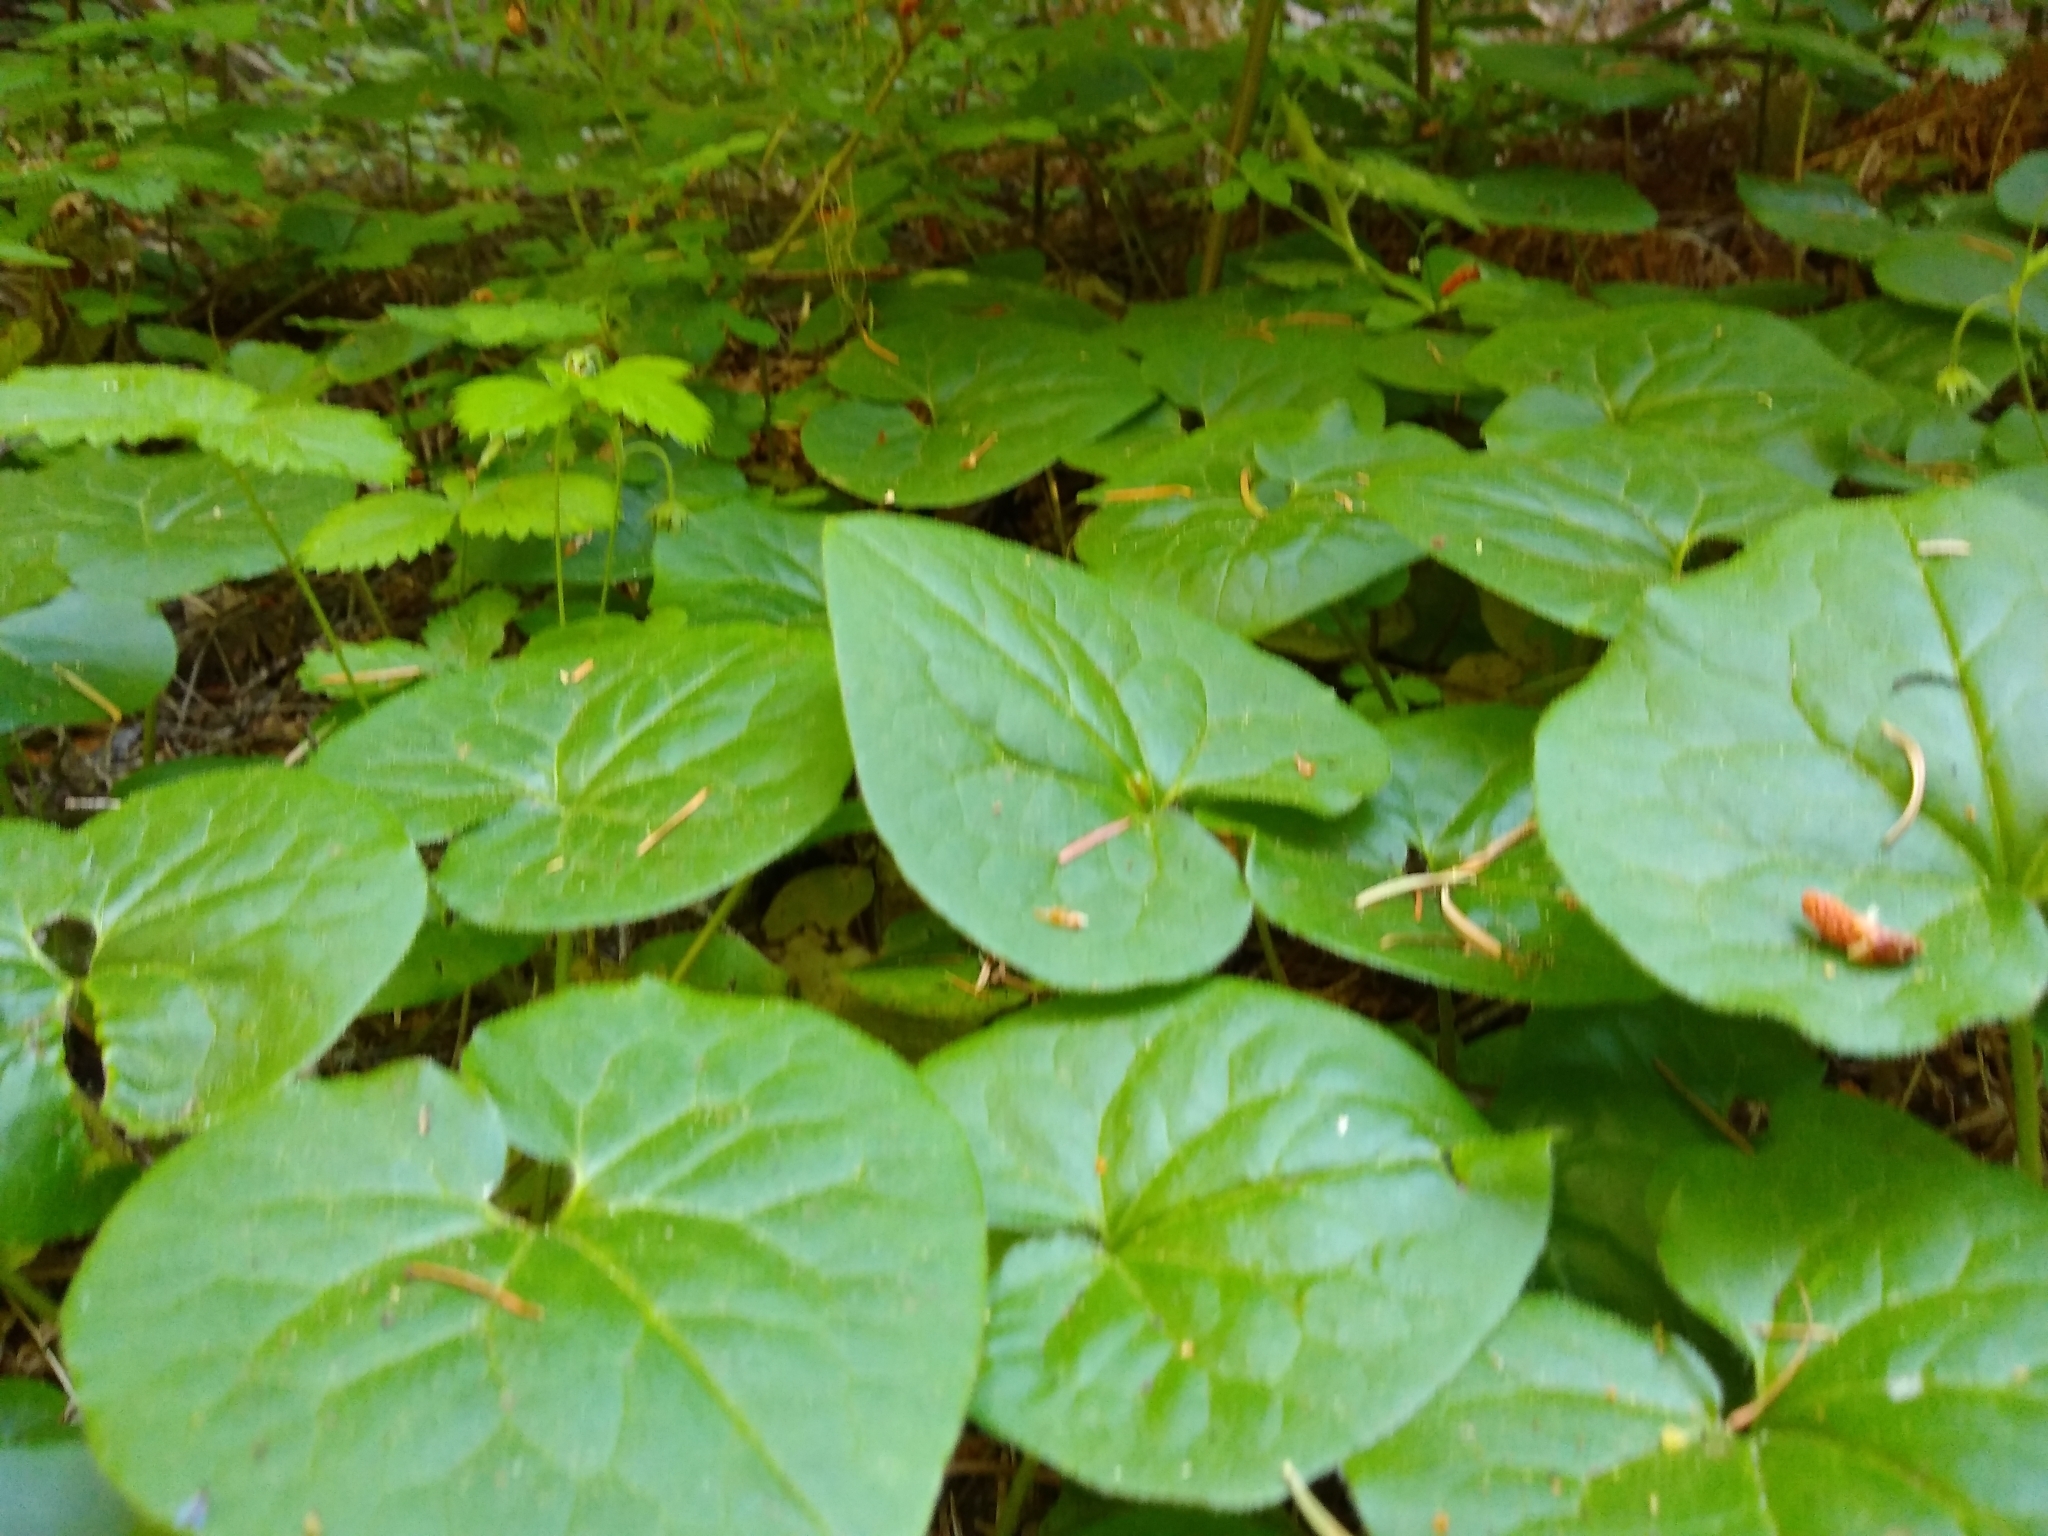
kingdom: Plantae
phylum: Tracheophyta
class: Magnoliopsida
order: Piperales
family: Aristolochiaceae
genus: Asarum
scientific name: Asarum caudatum
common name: Wild ginger
